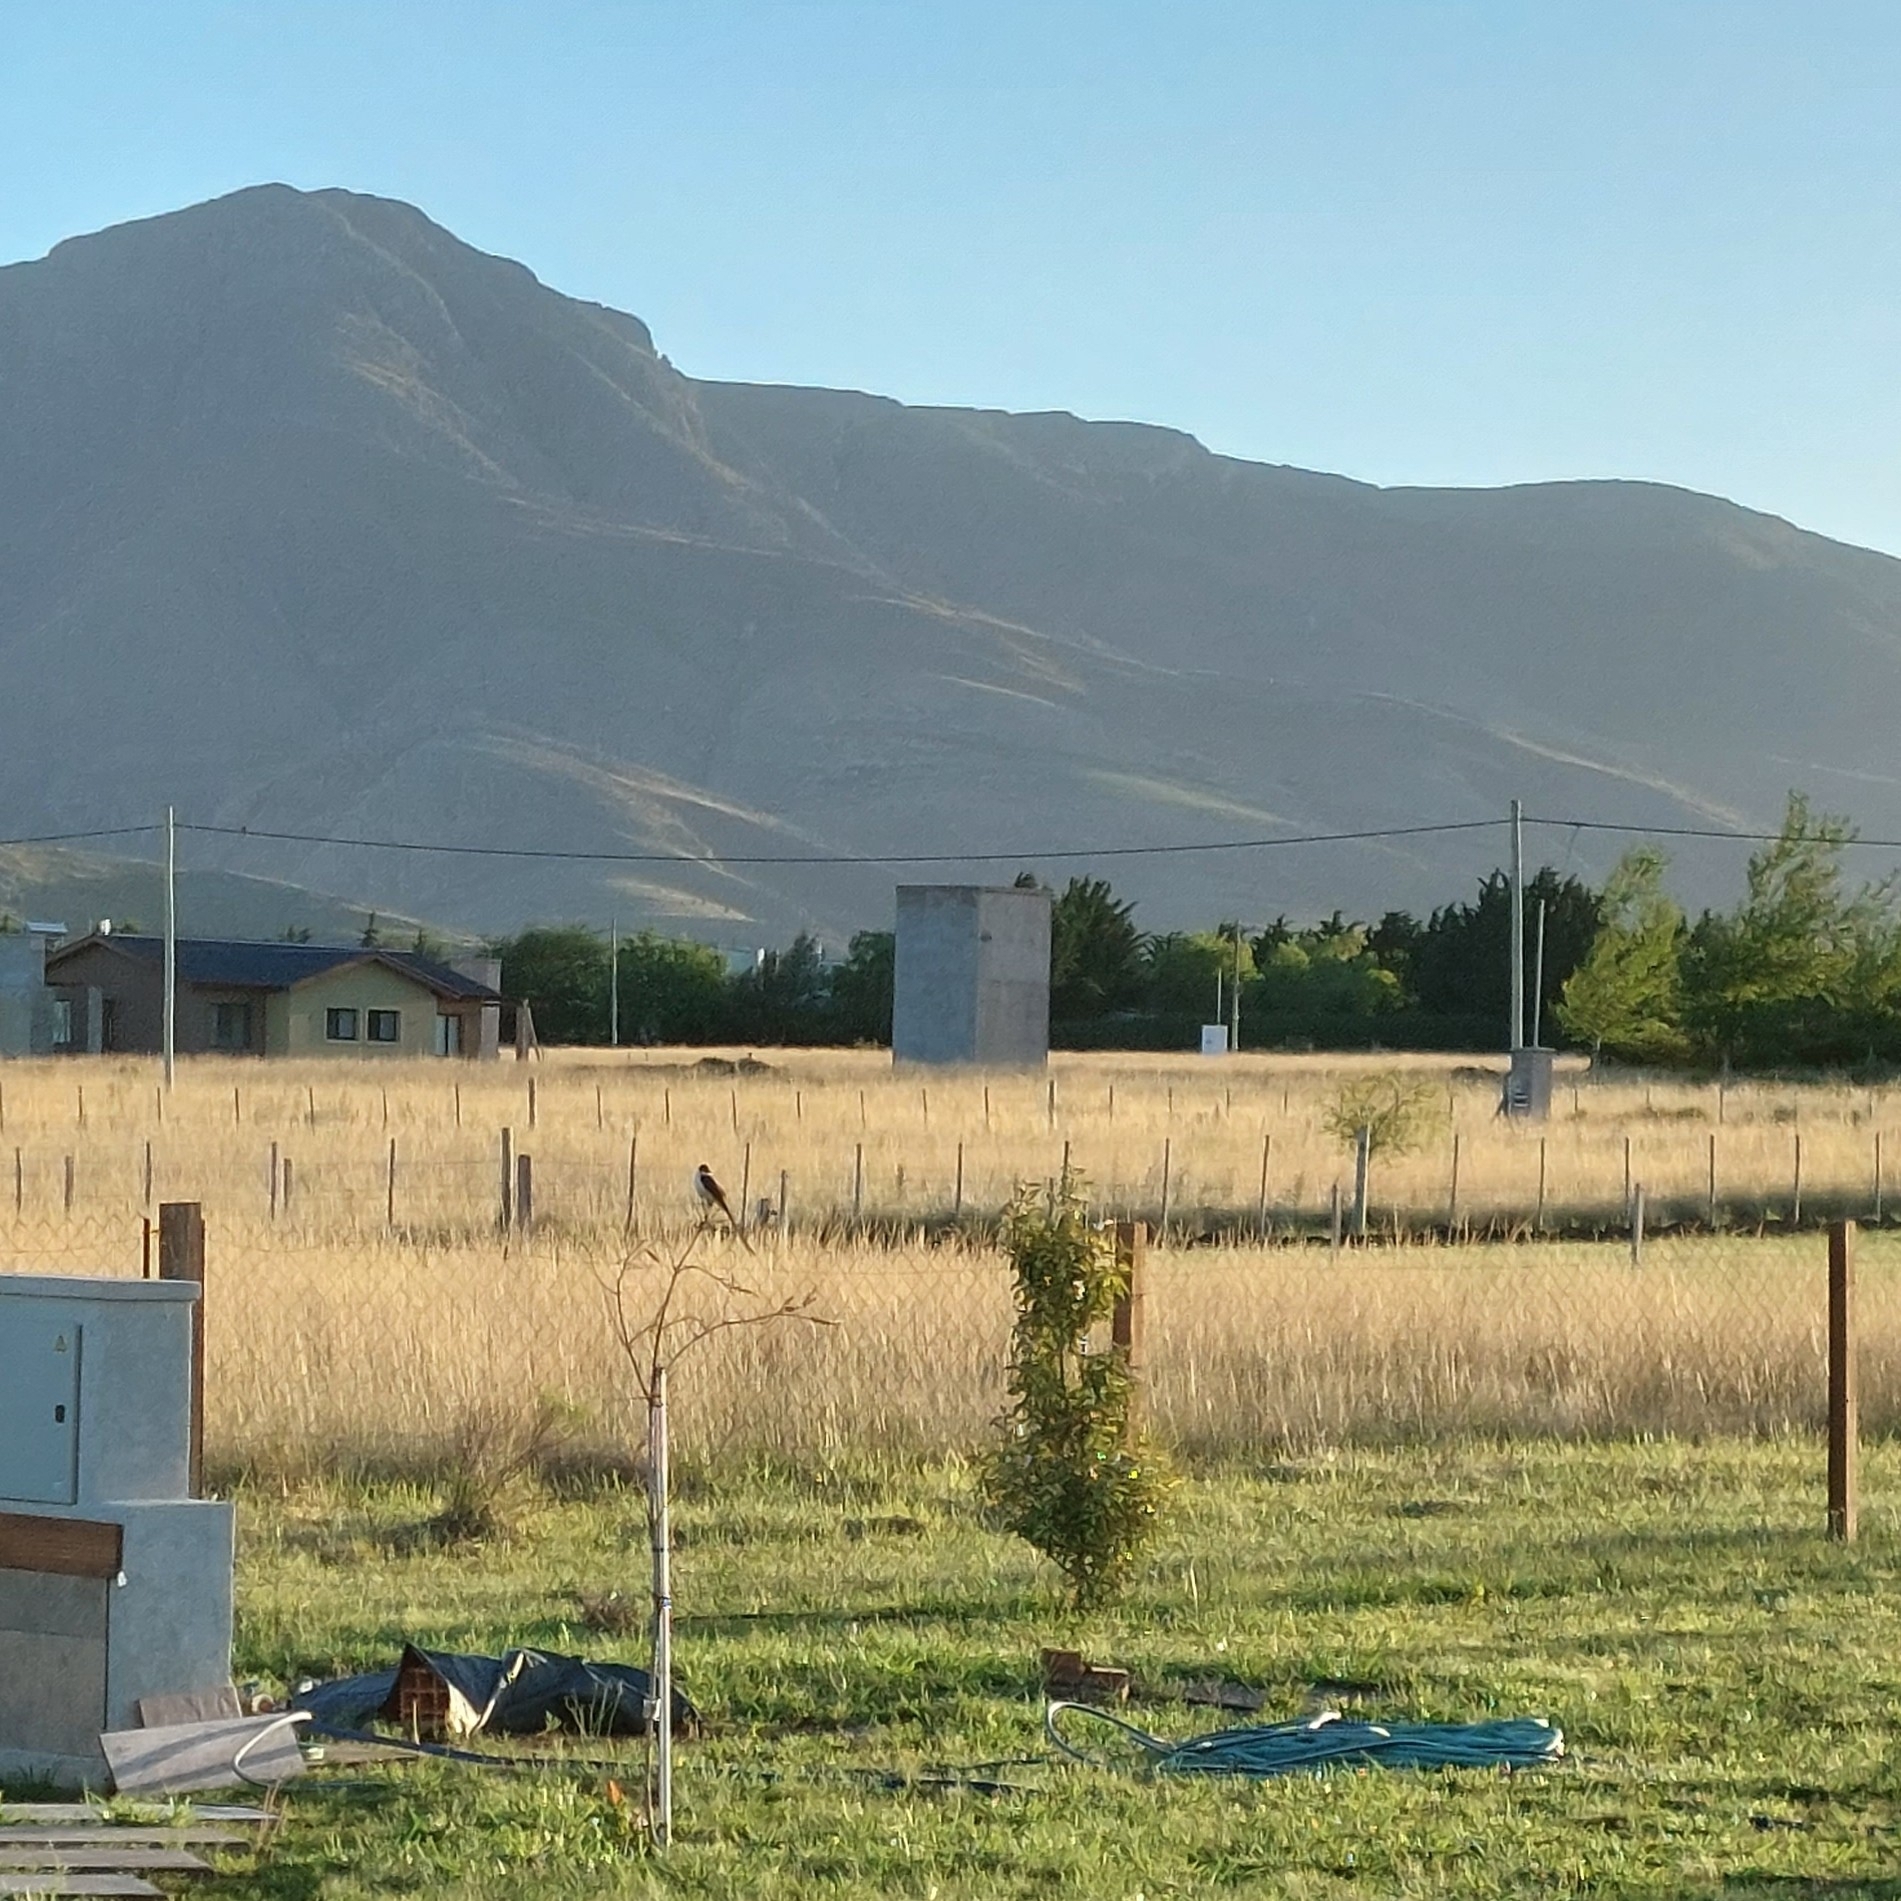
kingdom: Animalia
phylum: Chordata
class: Aves
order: Passeriformes
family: Tyrannidae
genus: Tyrannus
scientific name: Tyrannus savana
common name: Fork-tailed flycatcher
